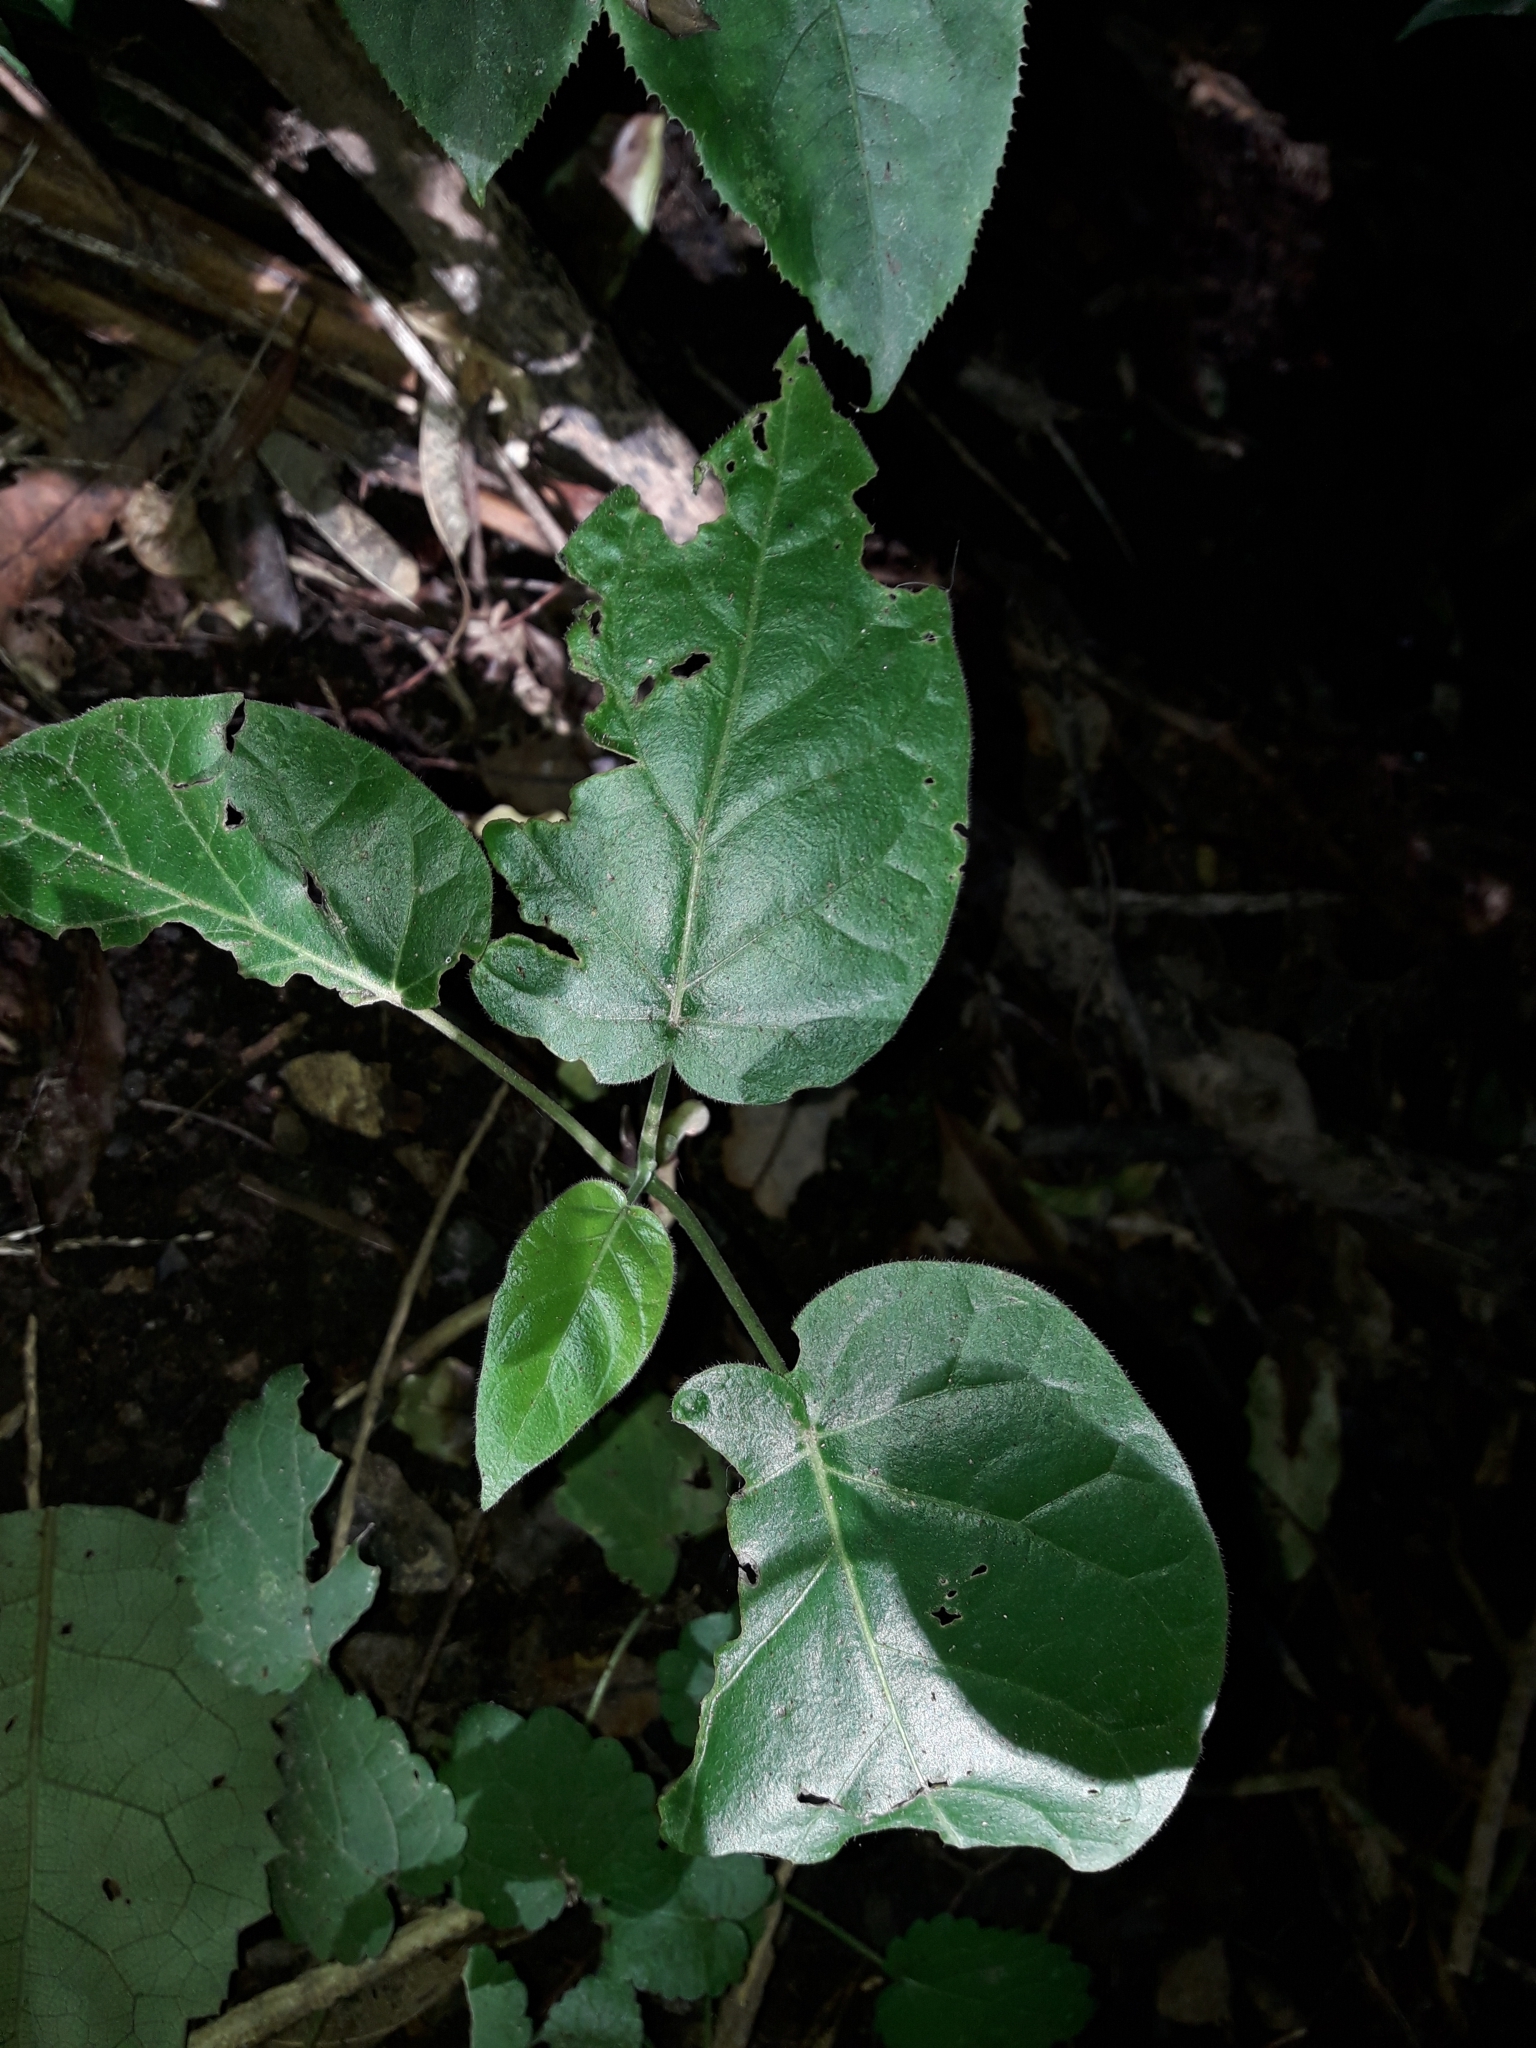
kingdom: Plantae
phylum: Tracheophyta
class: Magnoliopsida
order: Solanales
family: Solanaceae
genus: Solanum
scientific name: Solanum betaceum
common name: Tamarillo
